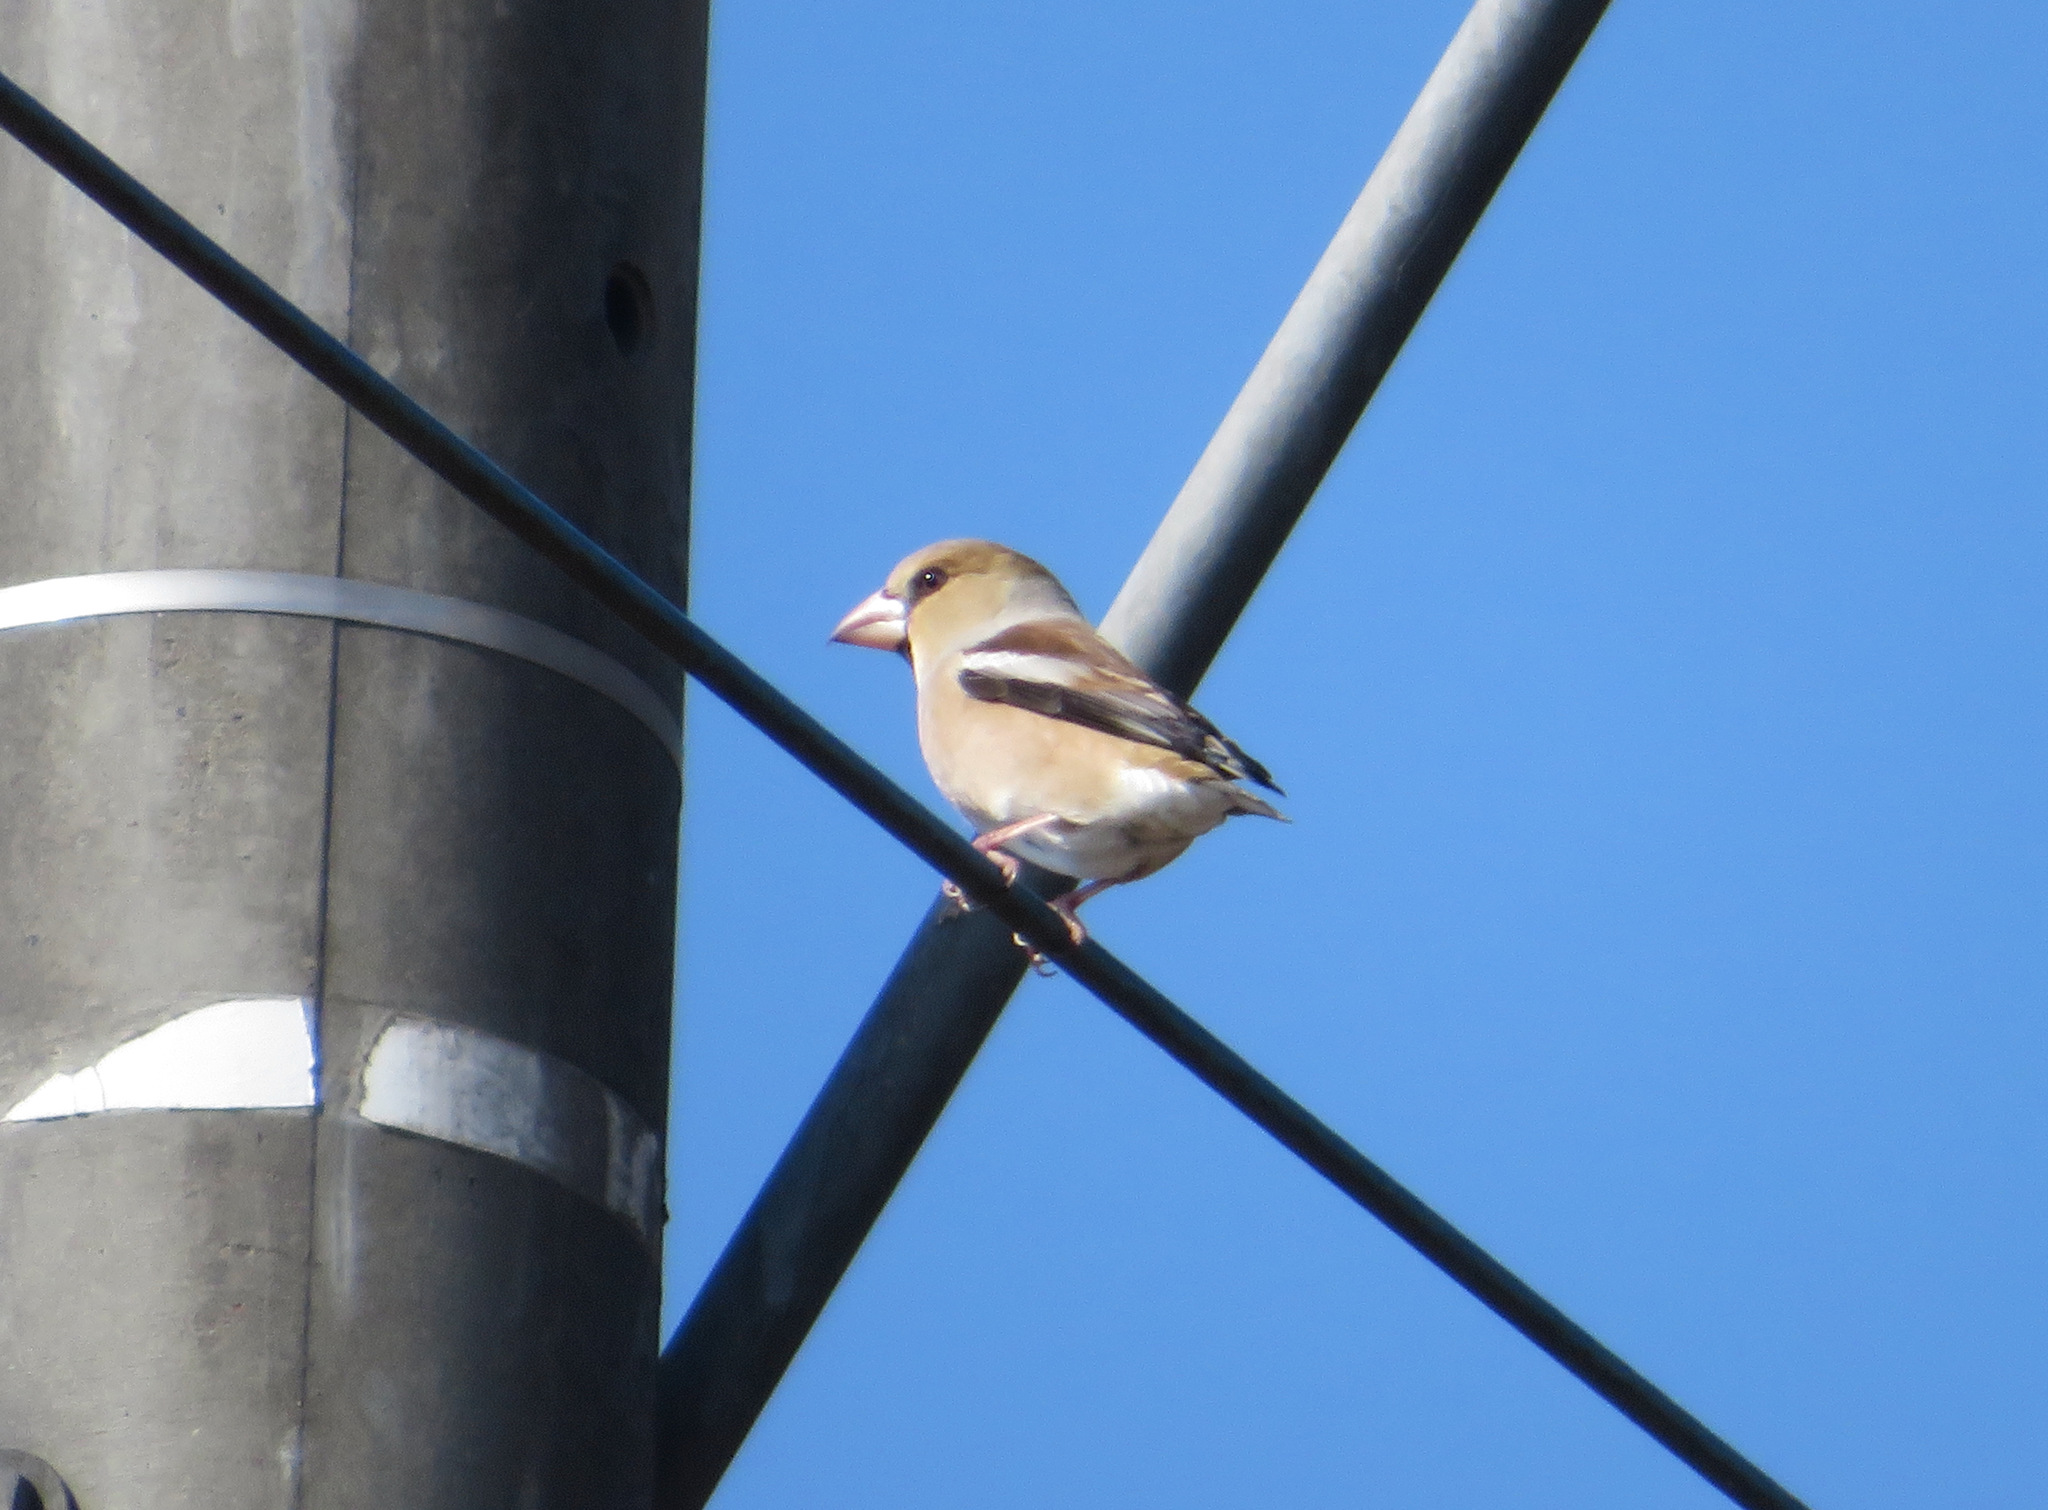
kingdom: Animalia
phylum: Chordata
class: Aves
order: Passeriformes
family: Fringillidae
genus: Coccothraustes
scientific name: Coccothraustes coccothraustes
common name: Hawfinch
